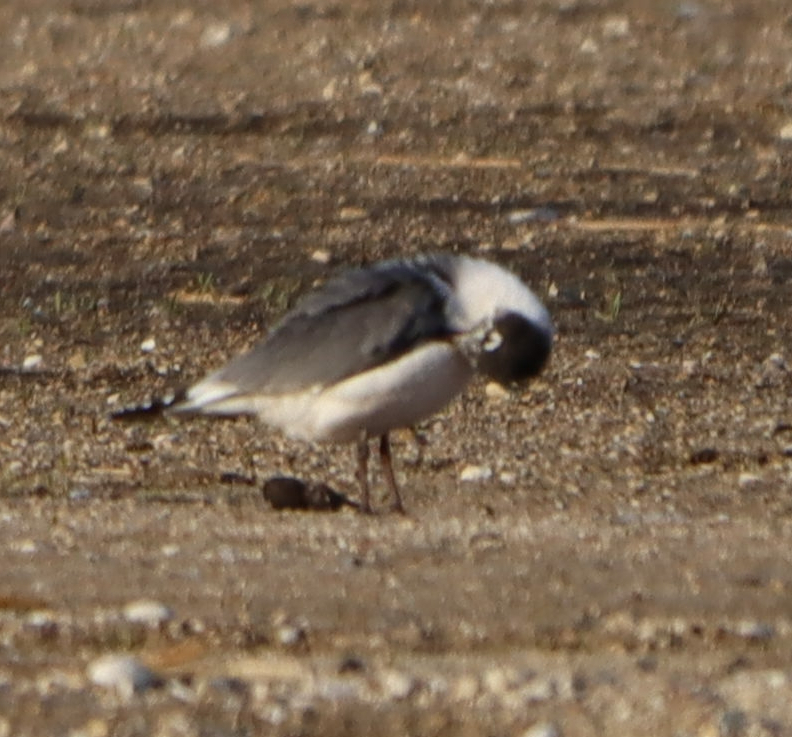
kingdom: Animalia
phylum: Chordata
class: Aves
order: Charadriiformes
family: Laridae
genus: Leucophaeus
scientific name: Leucophaeus pipixcan
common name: Franklin's gull
